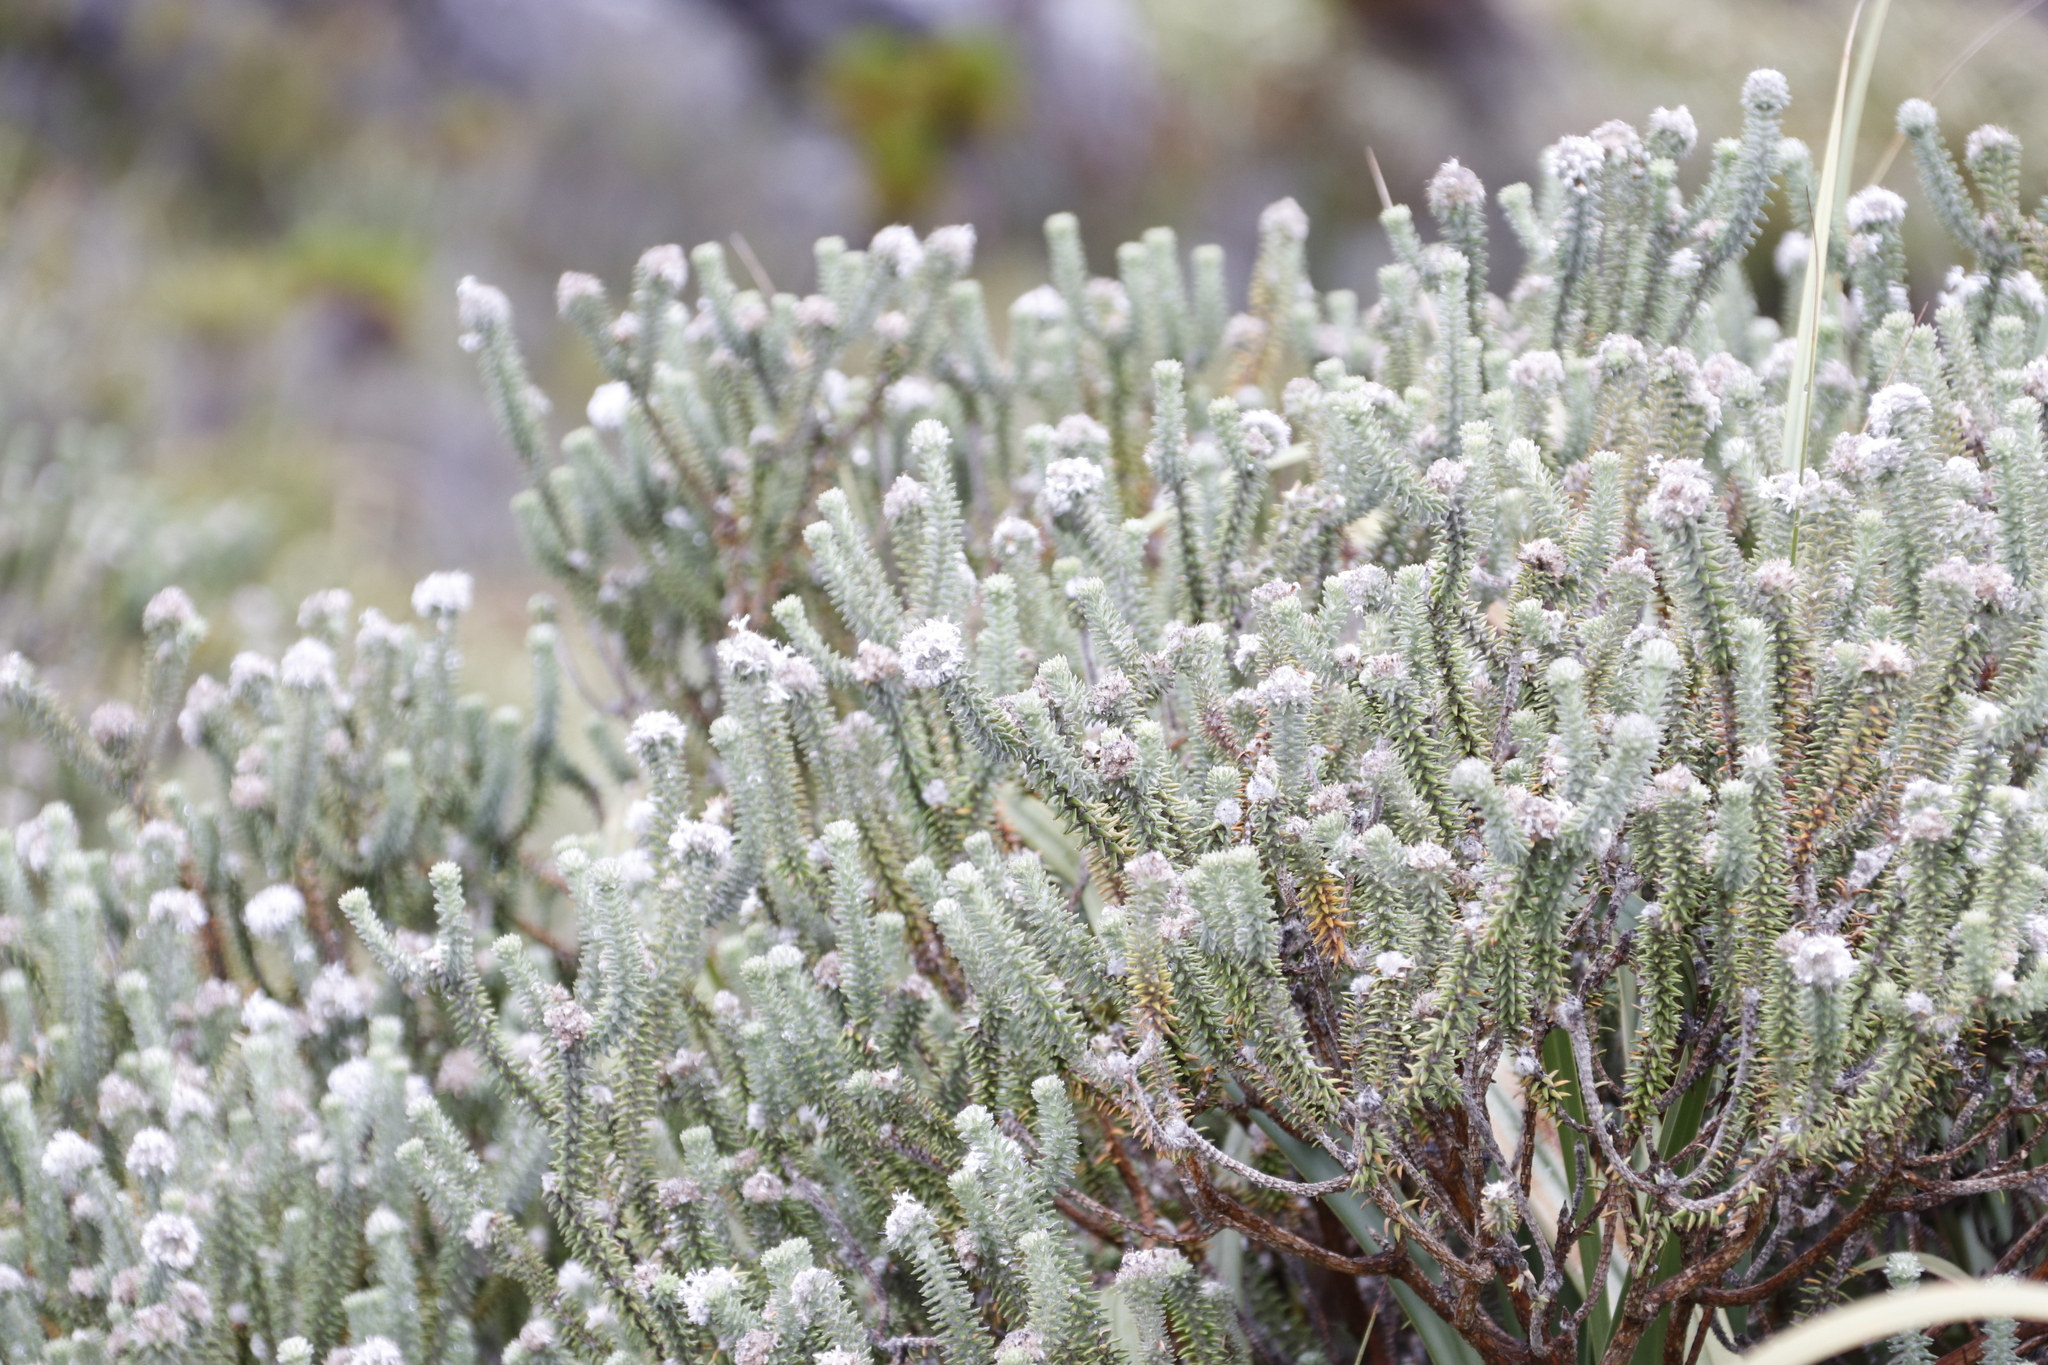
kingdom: Plantae
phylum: Tracheophyta
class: Magnoliopsida
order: Lamiales
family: Stilbaceae
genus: Kogelbergia
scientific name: Kogelbergia verticillata
